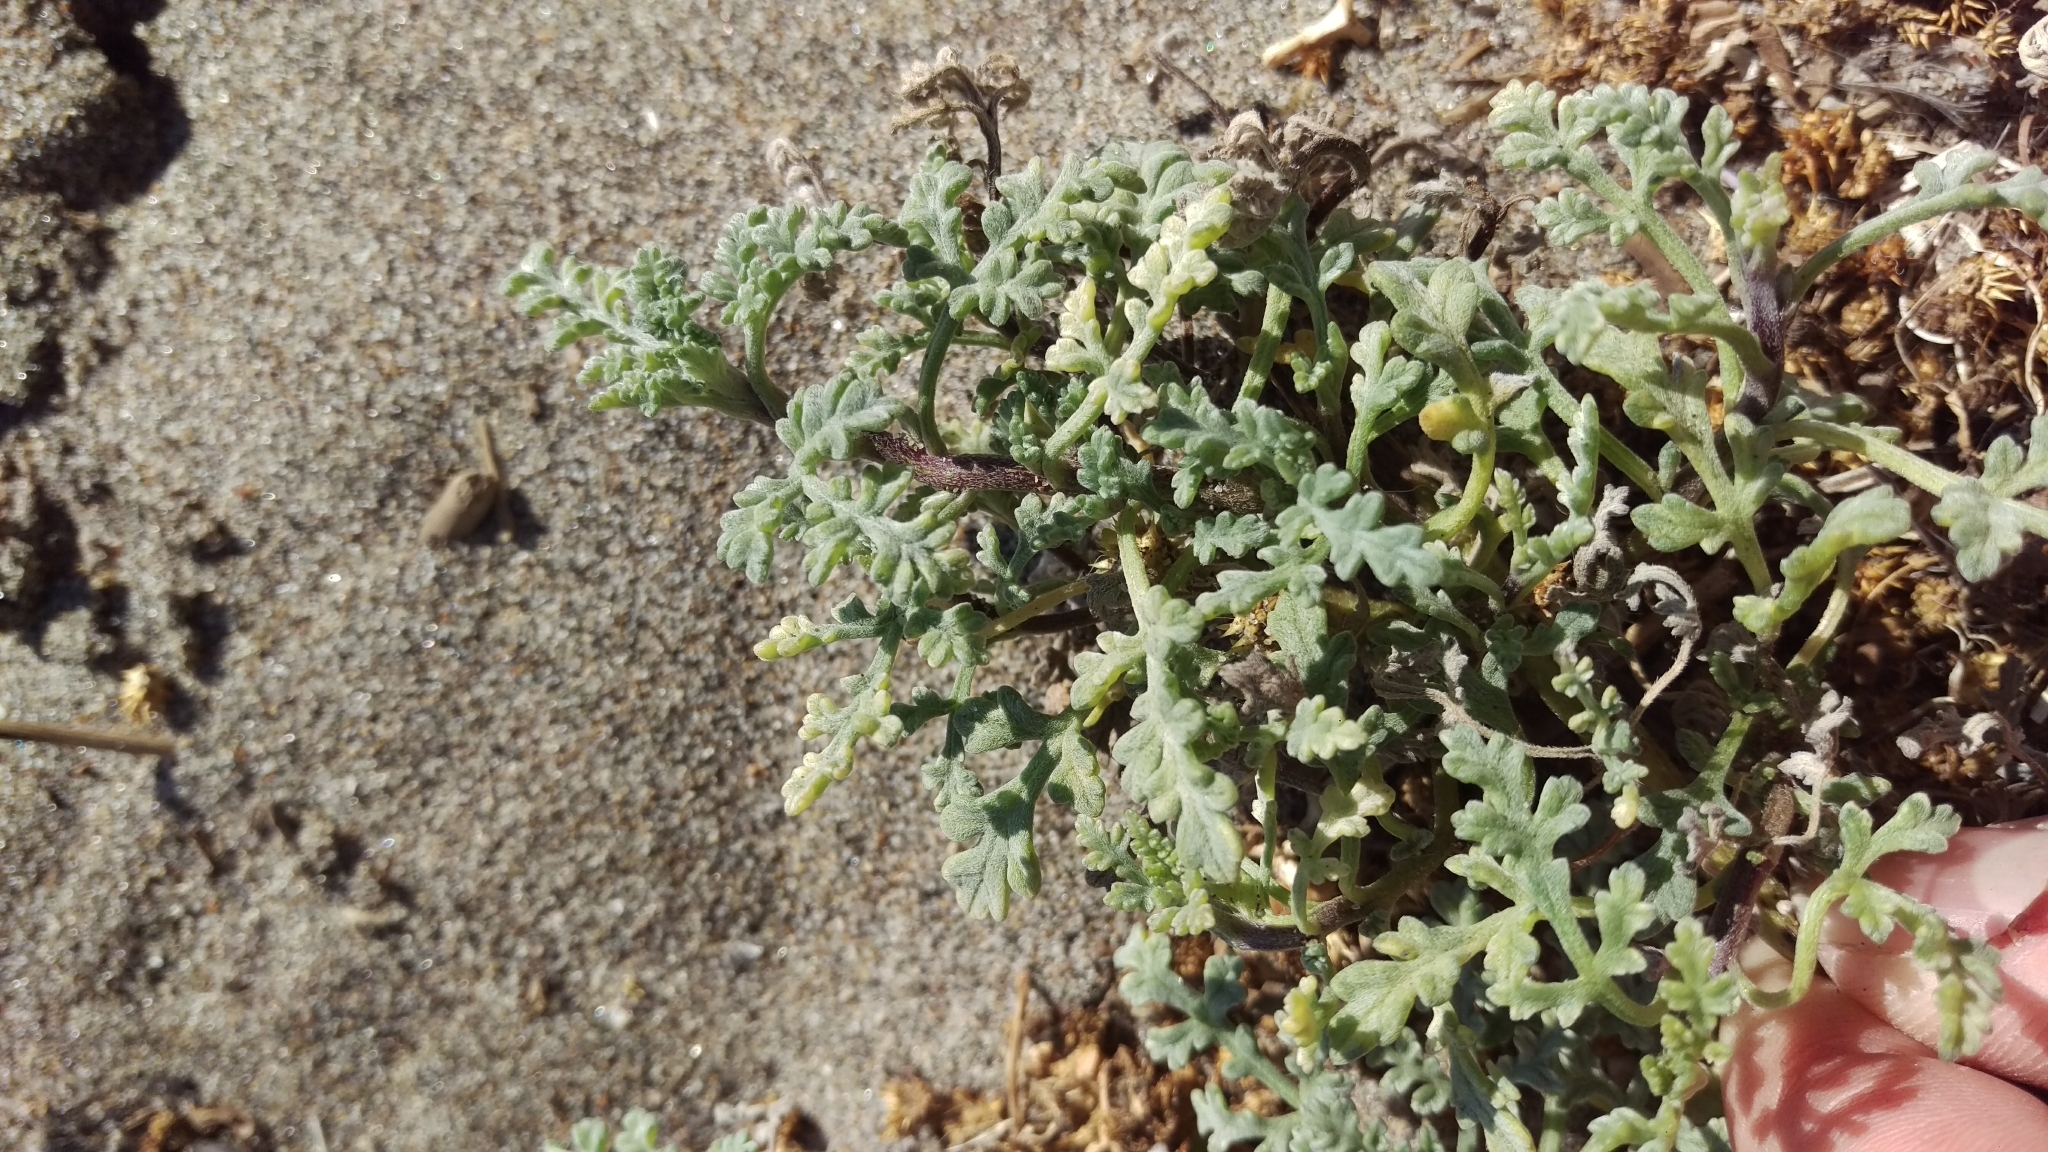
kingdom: Plantae
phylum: Tracheophyta
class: Magnoliopsida
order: Asterales
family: Asteraceae
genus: Ambrosia
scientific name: Ambrosia chamissonis
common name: Beachbur
